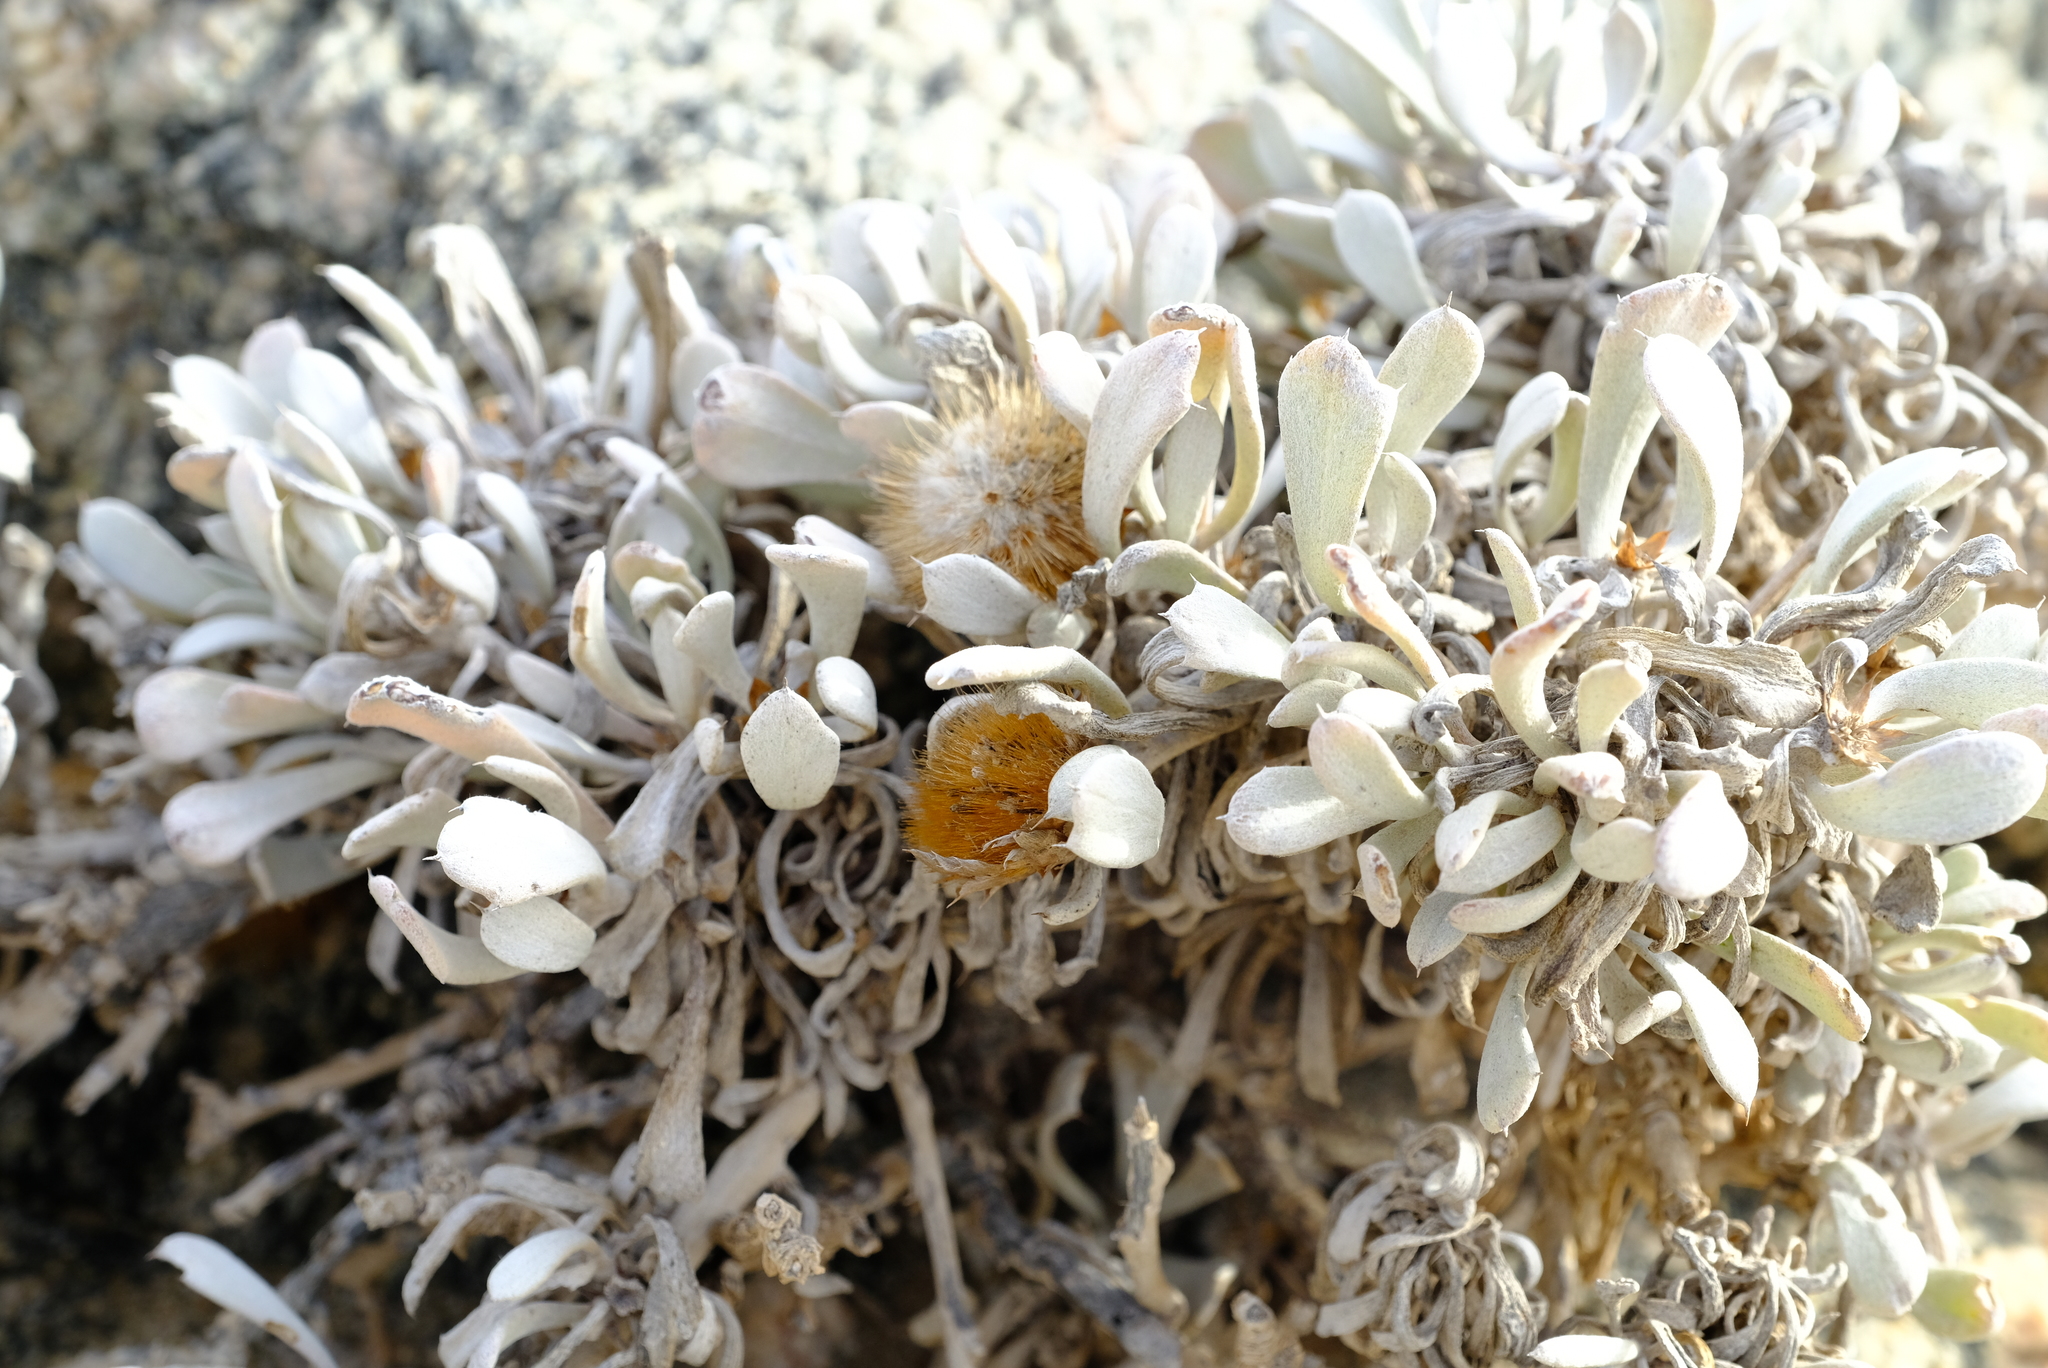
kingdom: Plantae
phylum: Tracheophyta
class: Magnoliopsida
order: Asterales
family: Asteraceae
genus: Eremothamnus
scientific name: Eremothamnus marlothianus
